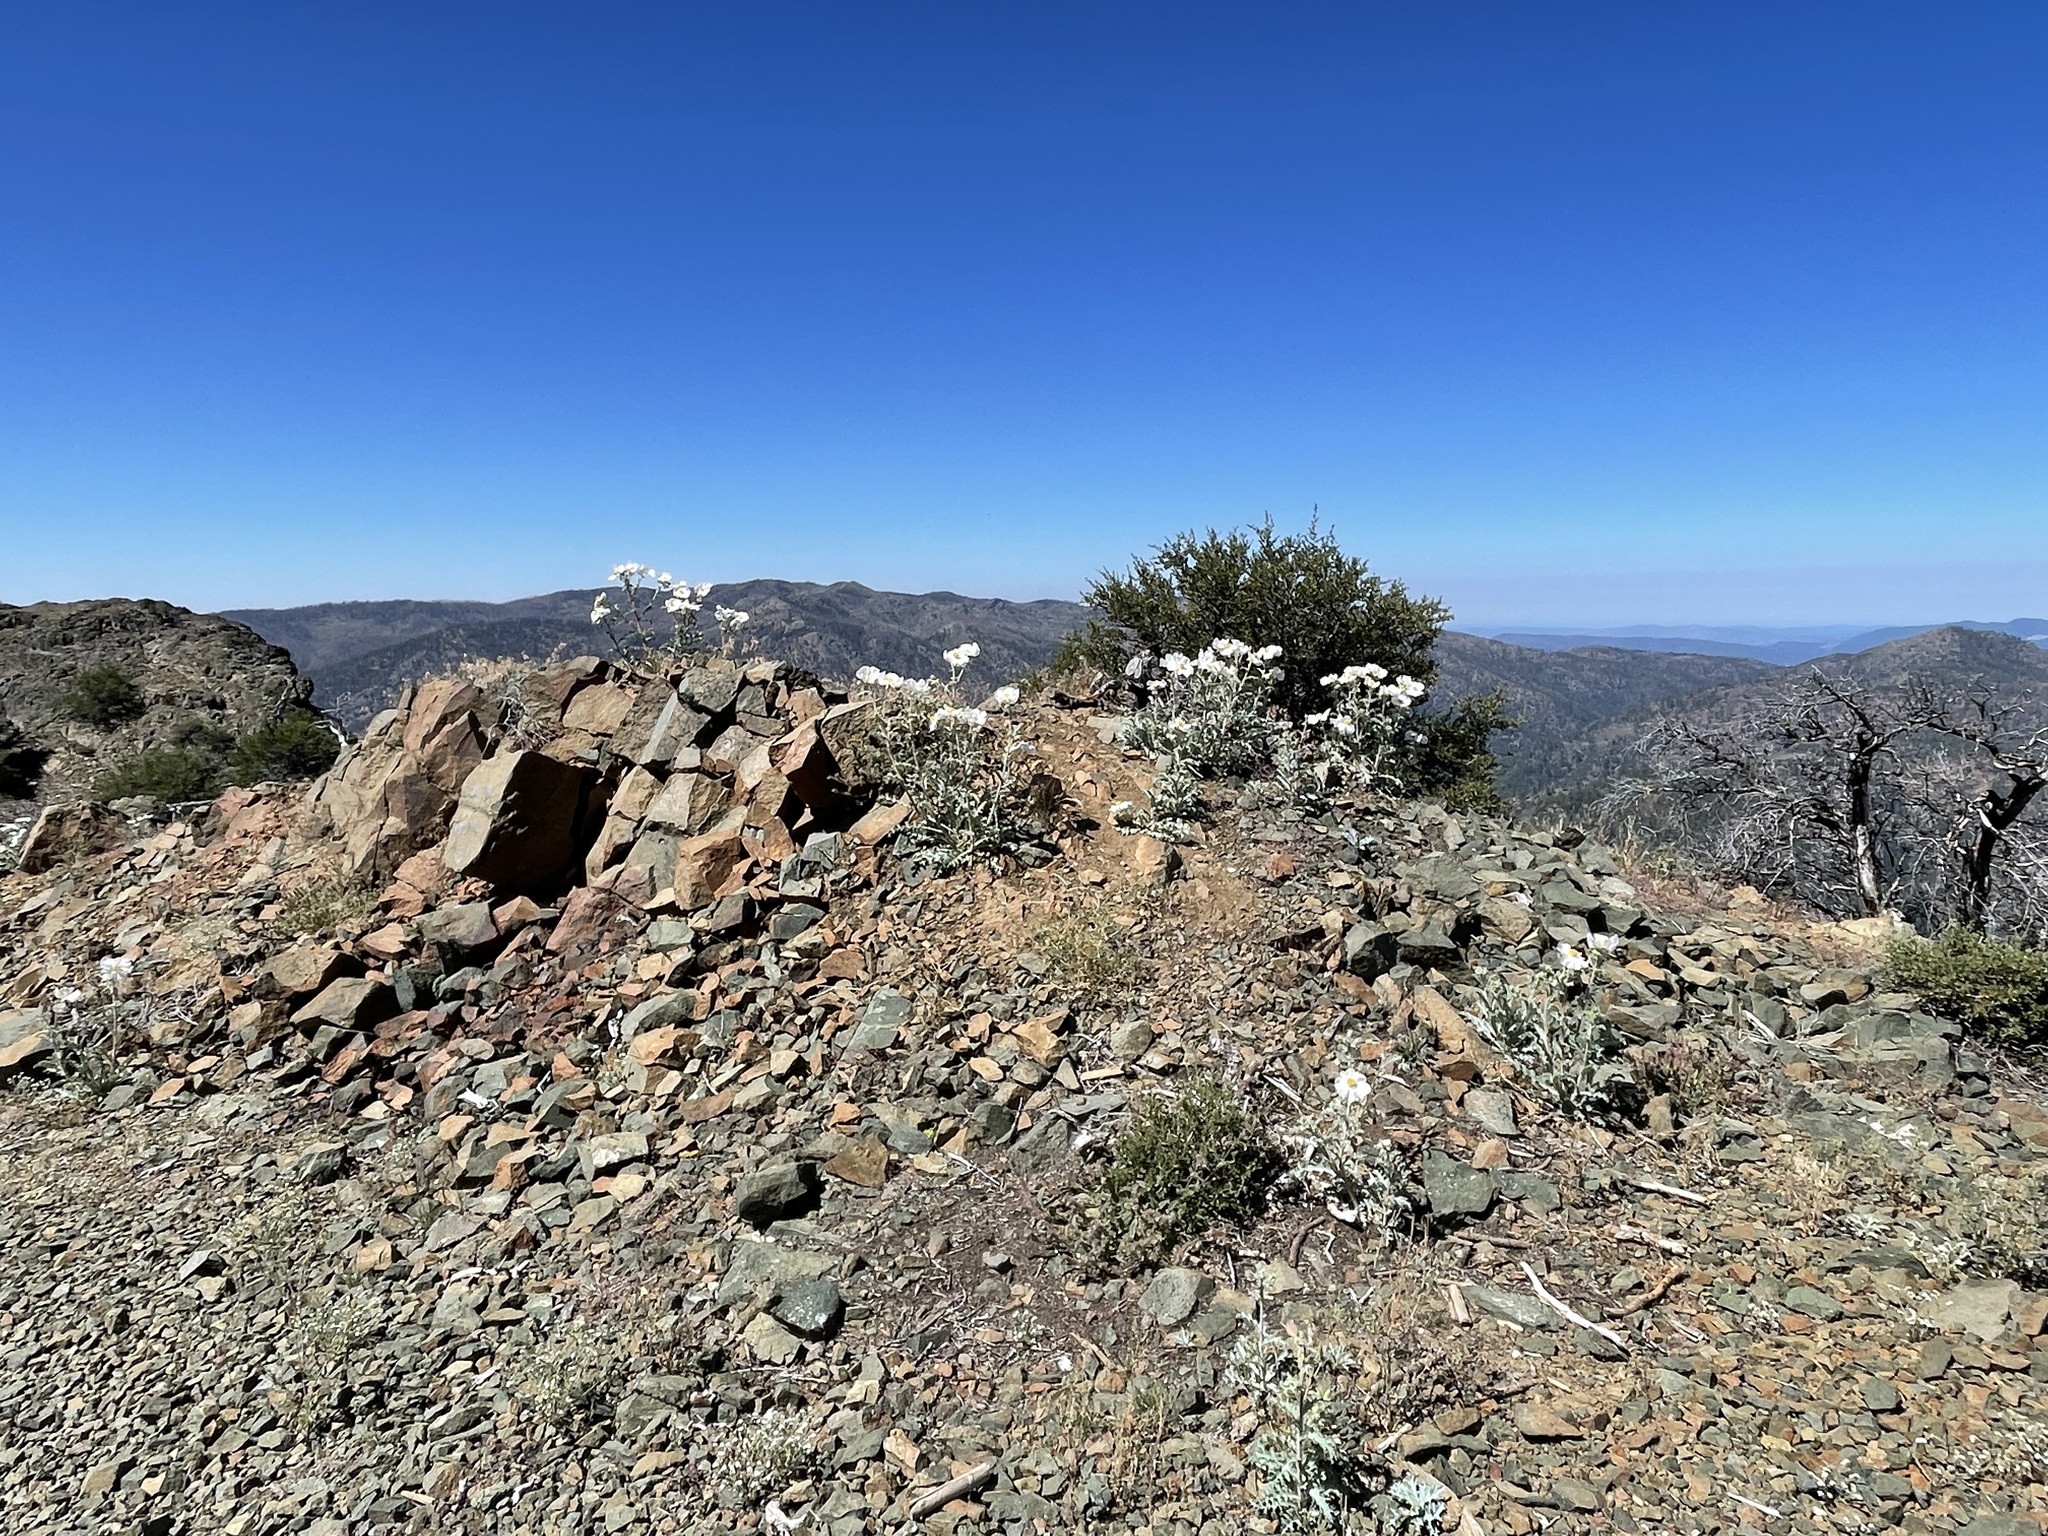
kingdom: Plantae
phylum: Tracheophyta
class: Magnoliopsida
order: Ranunculales
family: Papaveraceae
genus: Argemone
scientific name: Argemone munita
